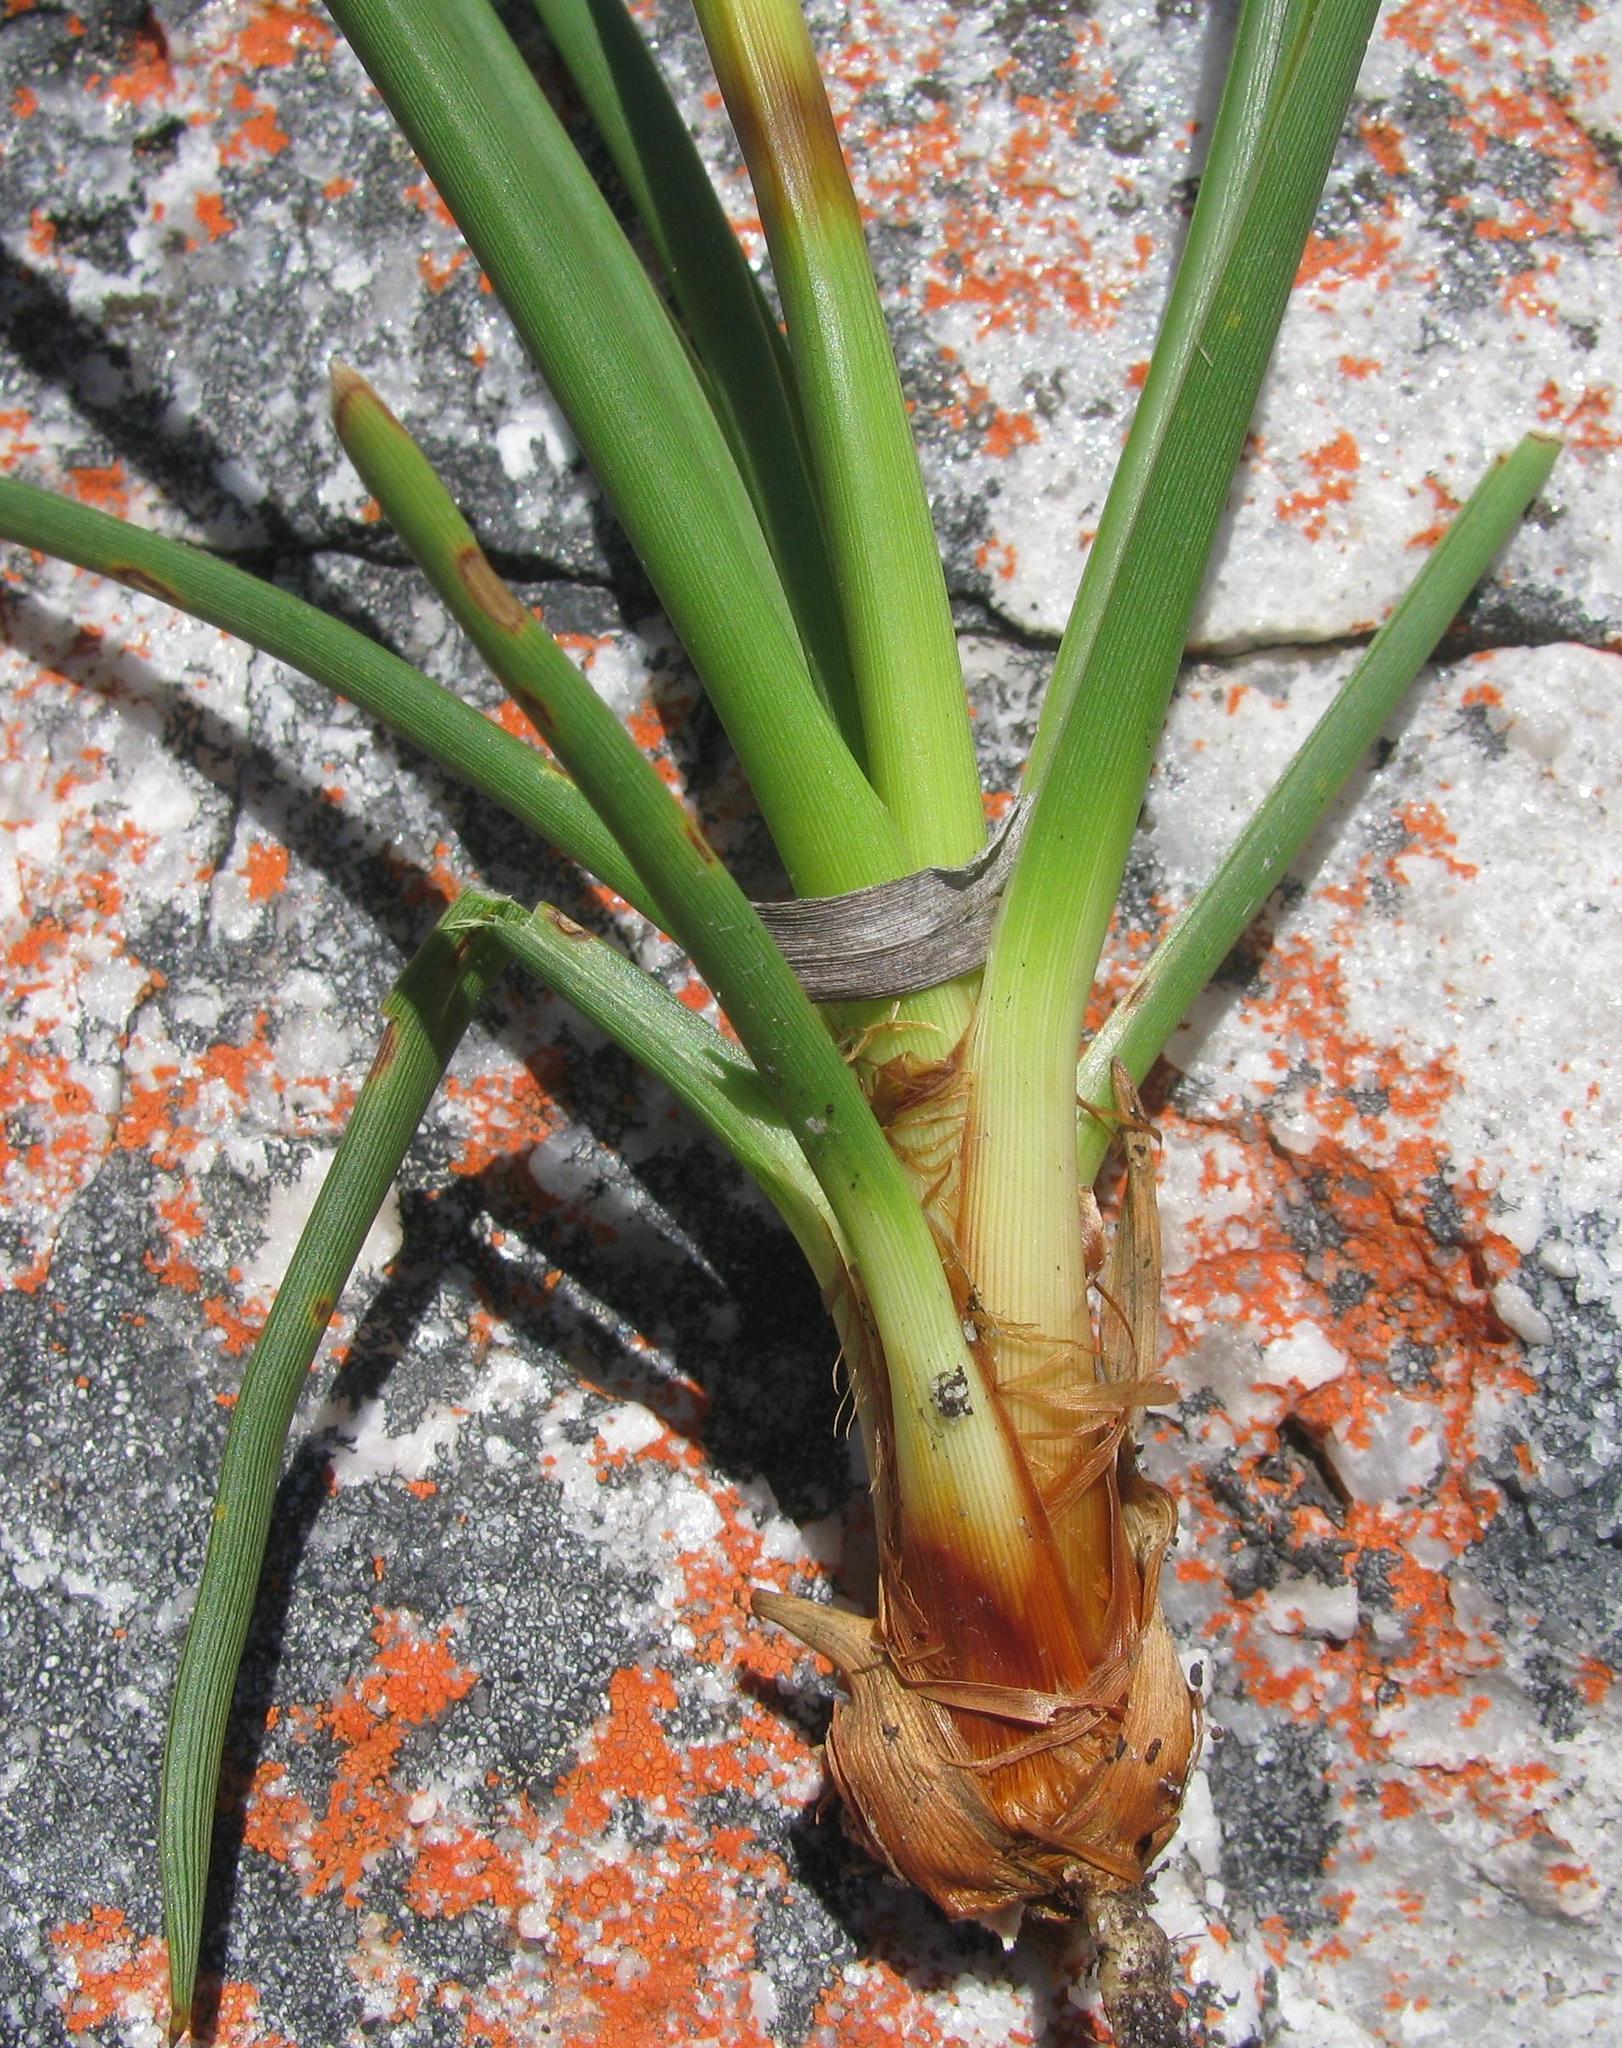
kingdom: Plantae
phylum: Tracheophyta
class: Liliopsida
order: Poales
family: Cyperaceae
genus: Tetraria
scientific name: Tetraria eximia
